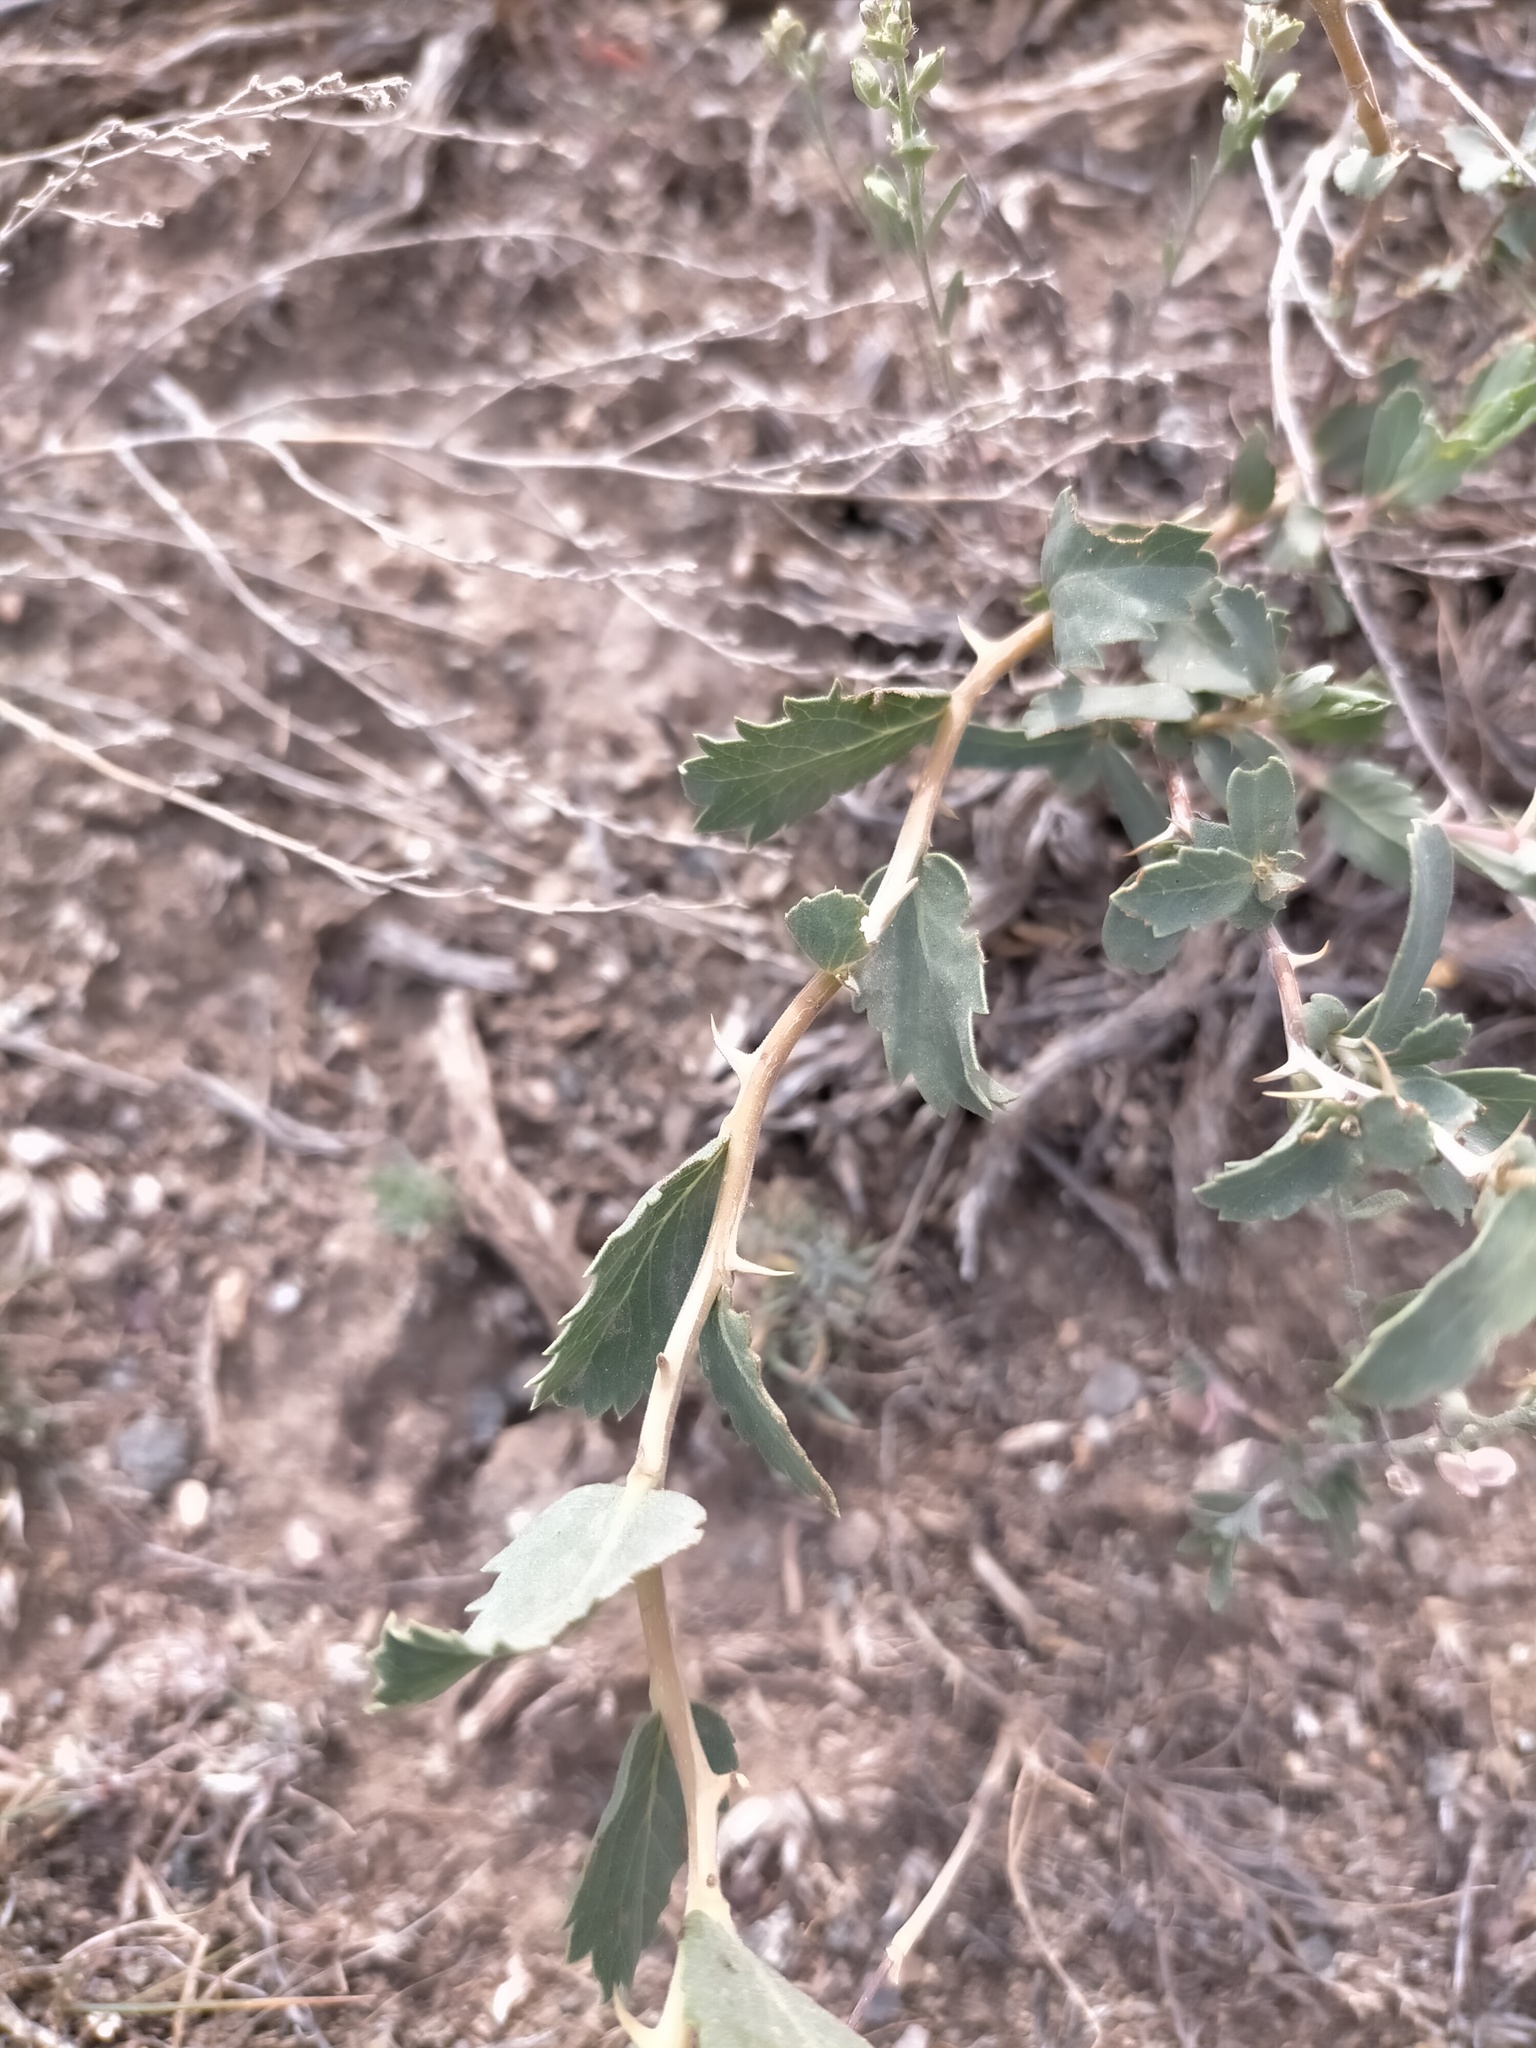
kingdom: Plantae
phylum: Tracheophyta
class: Magnoliopsida
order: Rosales
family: Rosaceae
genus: Rosa
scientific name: Rosa persica
